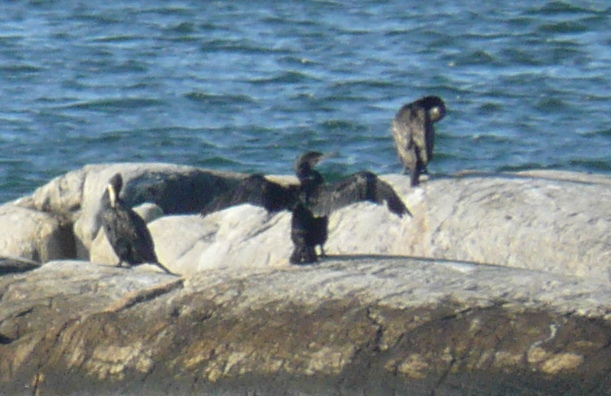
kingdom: Animalia
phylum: Chordata
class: Aves
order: Suliformes
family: Phalacrocoracidae
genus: Phalacrocorax
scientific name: Phalacrocorax carbo
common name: Great cormorant
